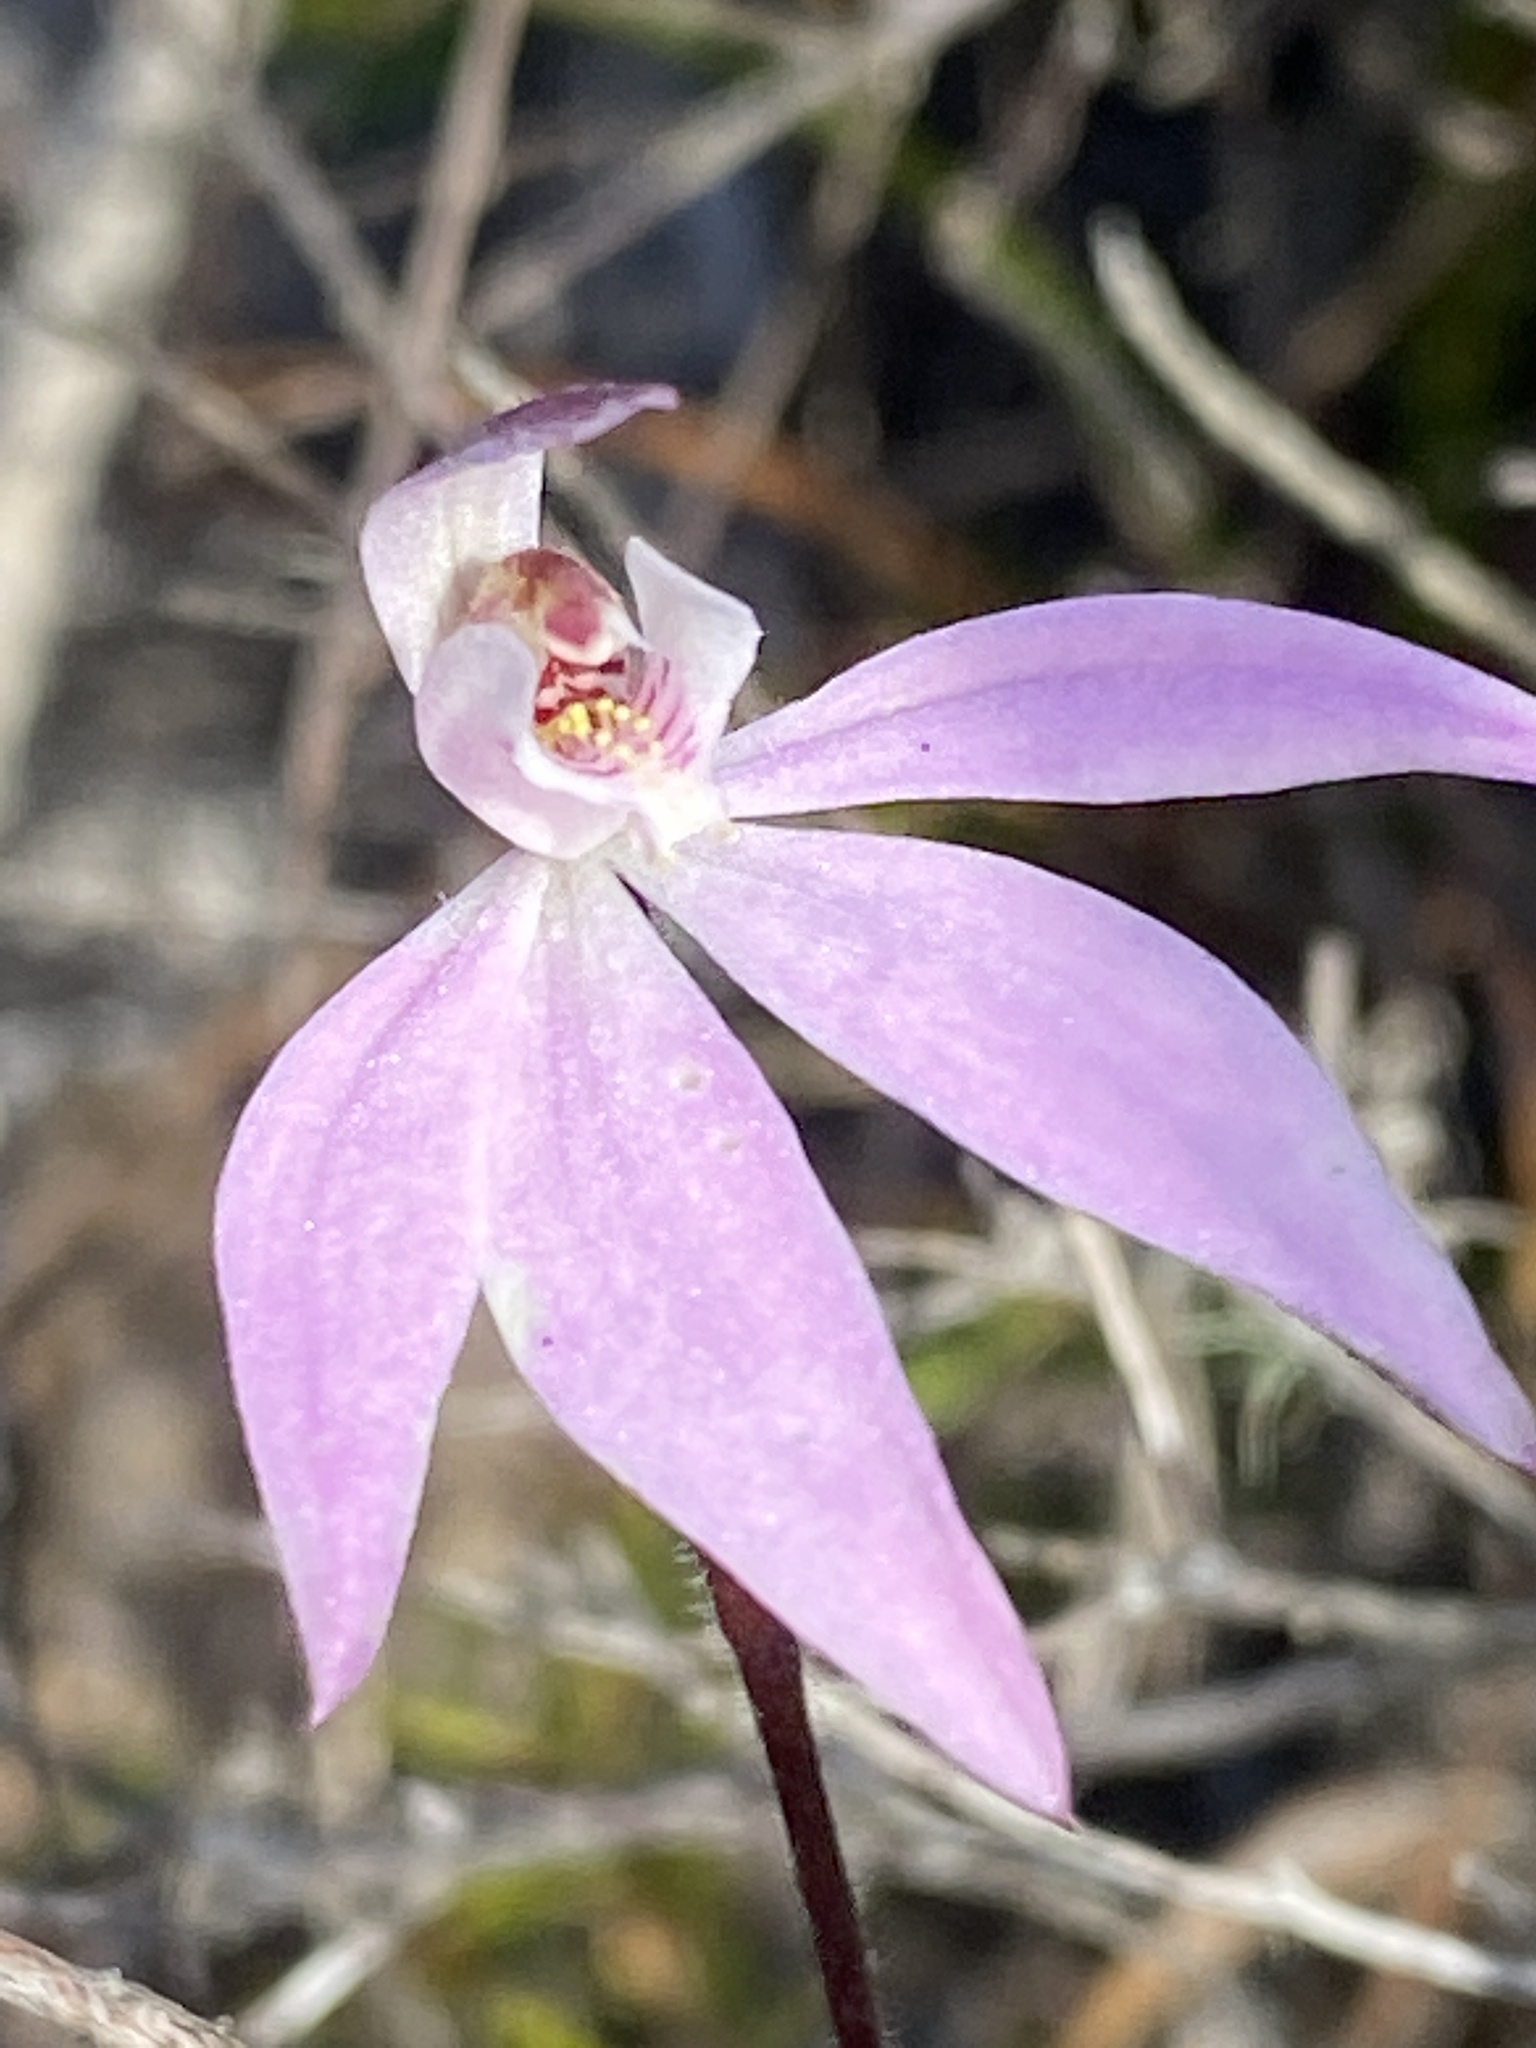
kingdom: Plantae
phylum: Tracheophyta
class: Liliopsida
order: Asparagales
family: Orchidaceae
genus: Caladenia
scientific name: Caladenia carnea
